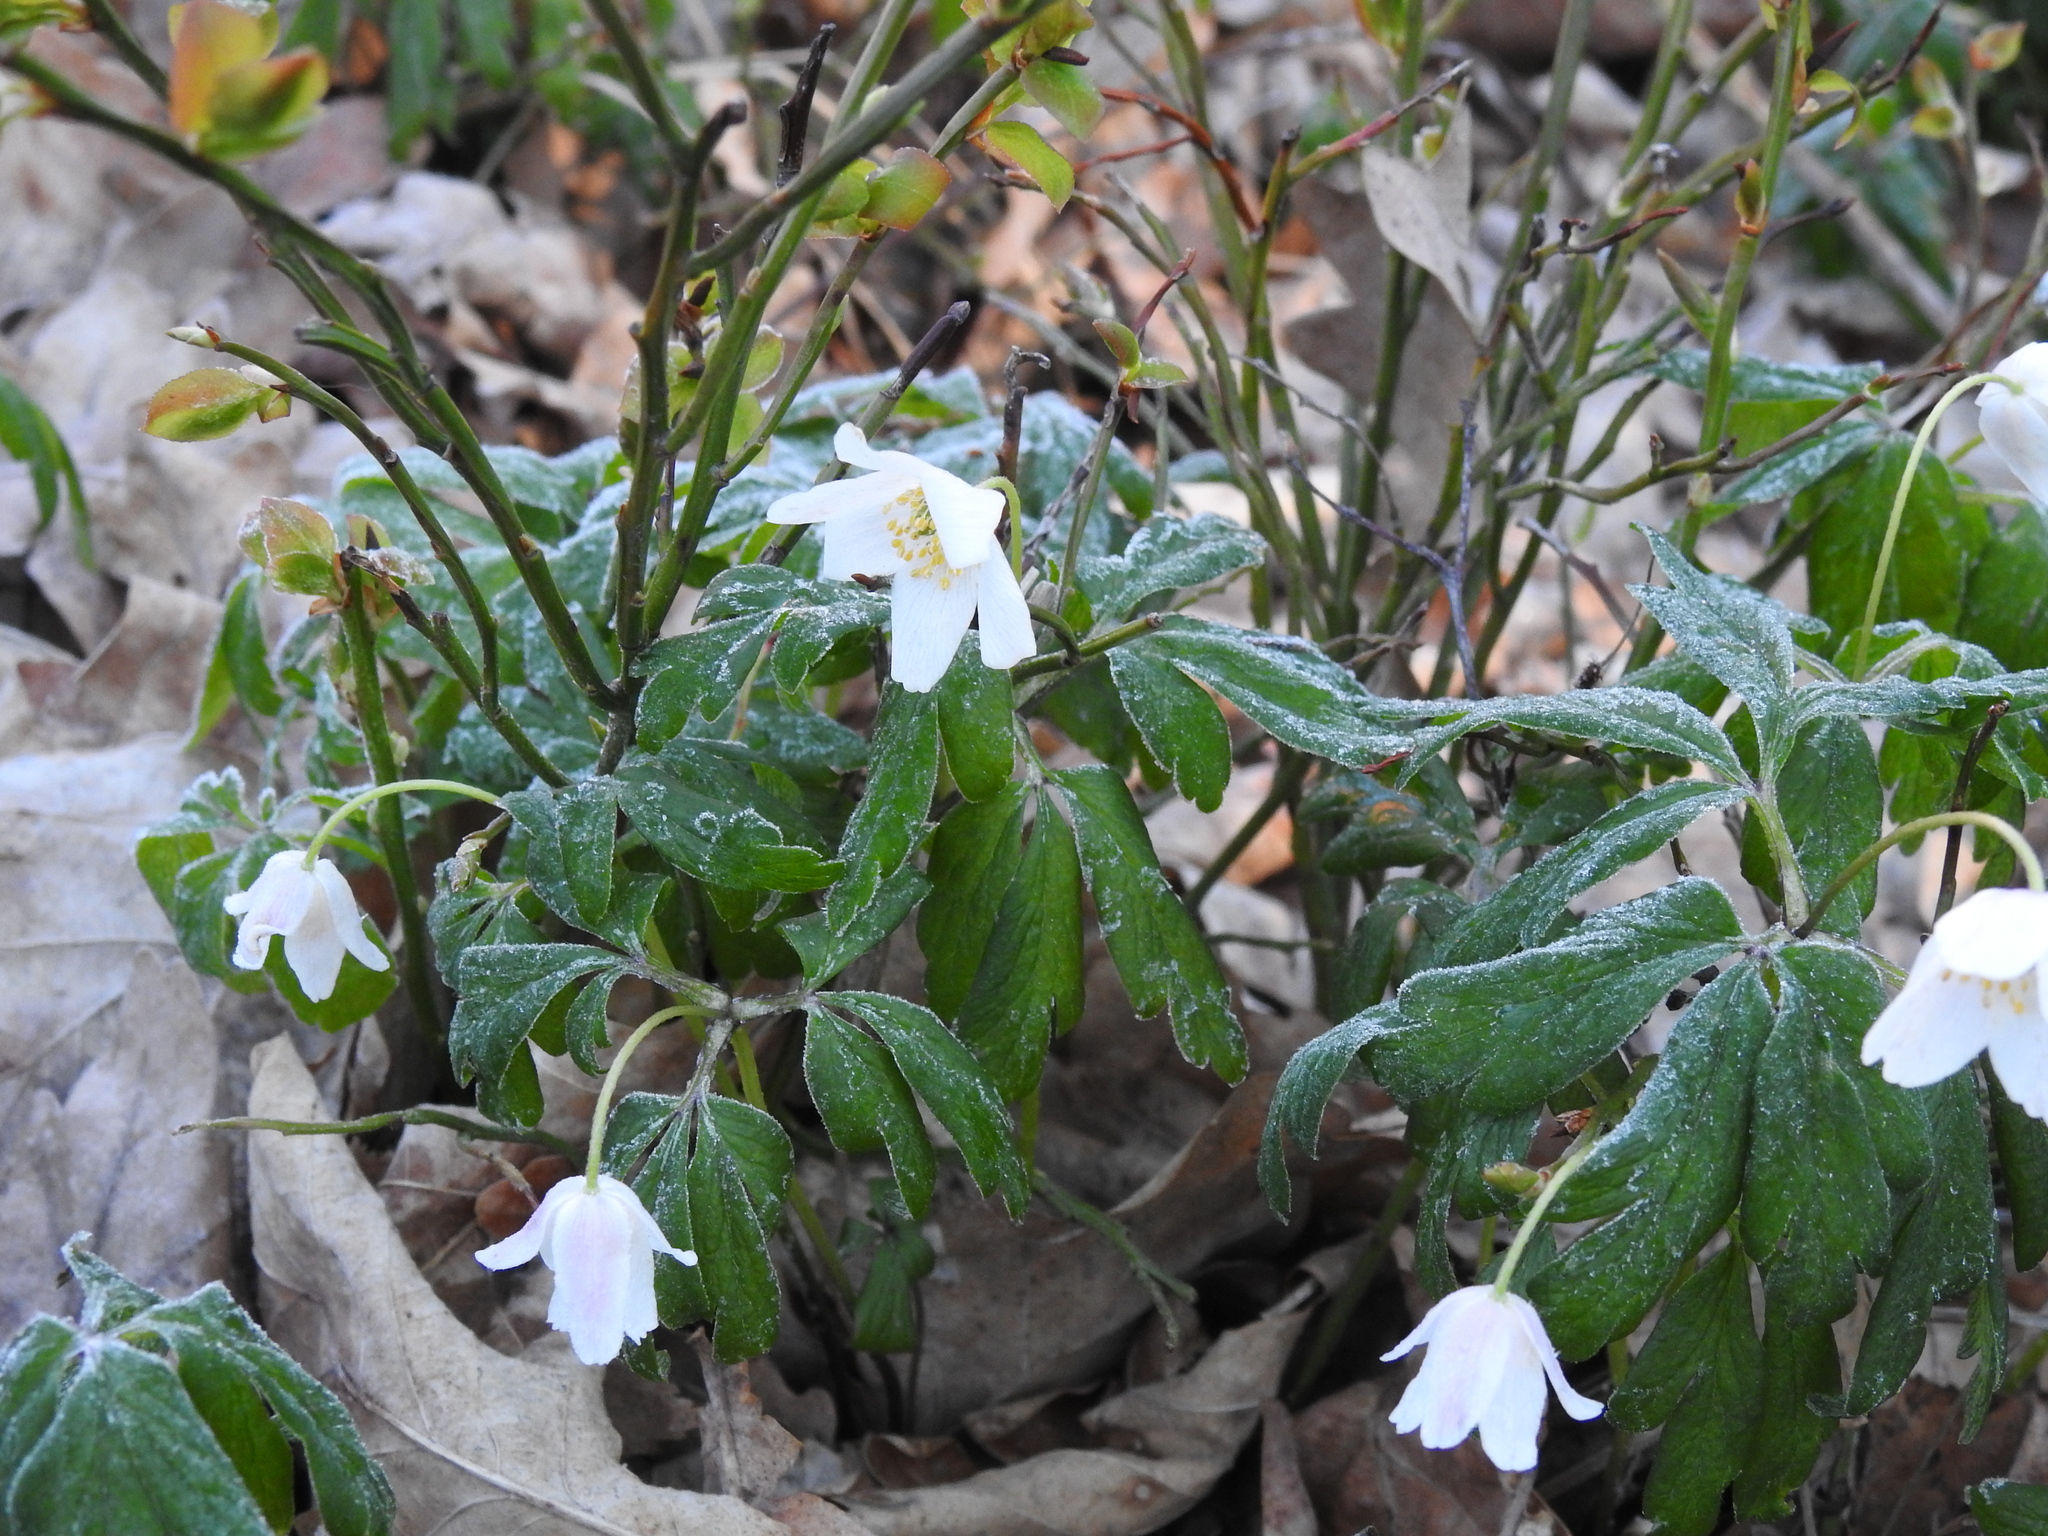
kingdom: Plantae
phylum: Tracheophyta
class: Magnoliopsida
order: Ranunculales
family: Ranunculaceae
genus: Anemone
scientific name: Anemone nemorosa
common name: Wood anemone
